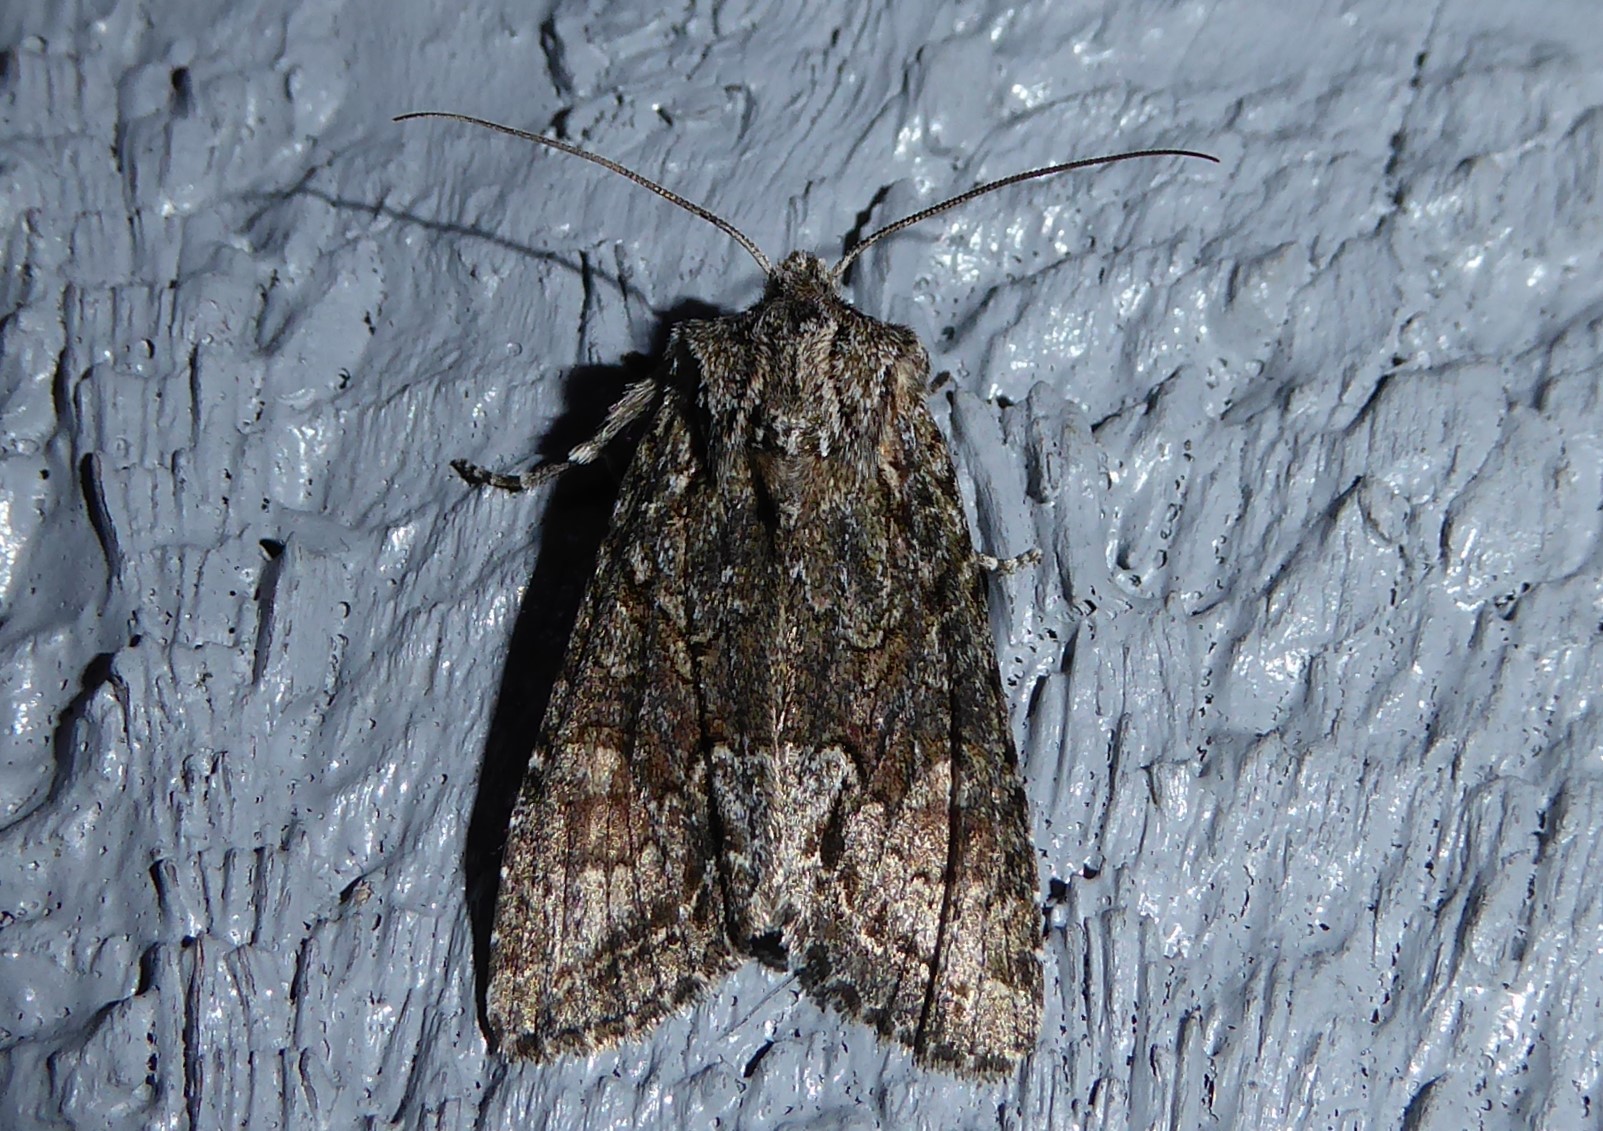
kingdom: Animalia
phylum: Arthropoda
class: Insecta
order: Lepidoptera
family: Noctuidae
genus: Ichneutica
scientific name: Ichneutica mutans
